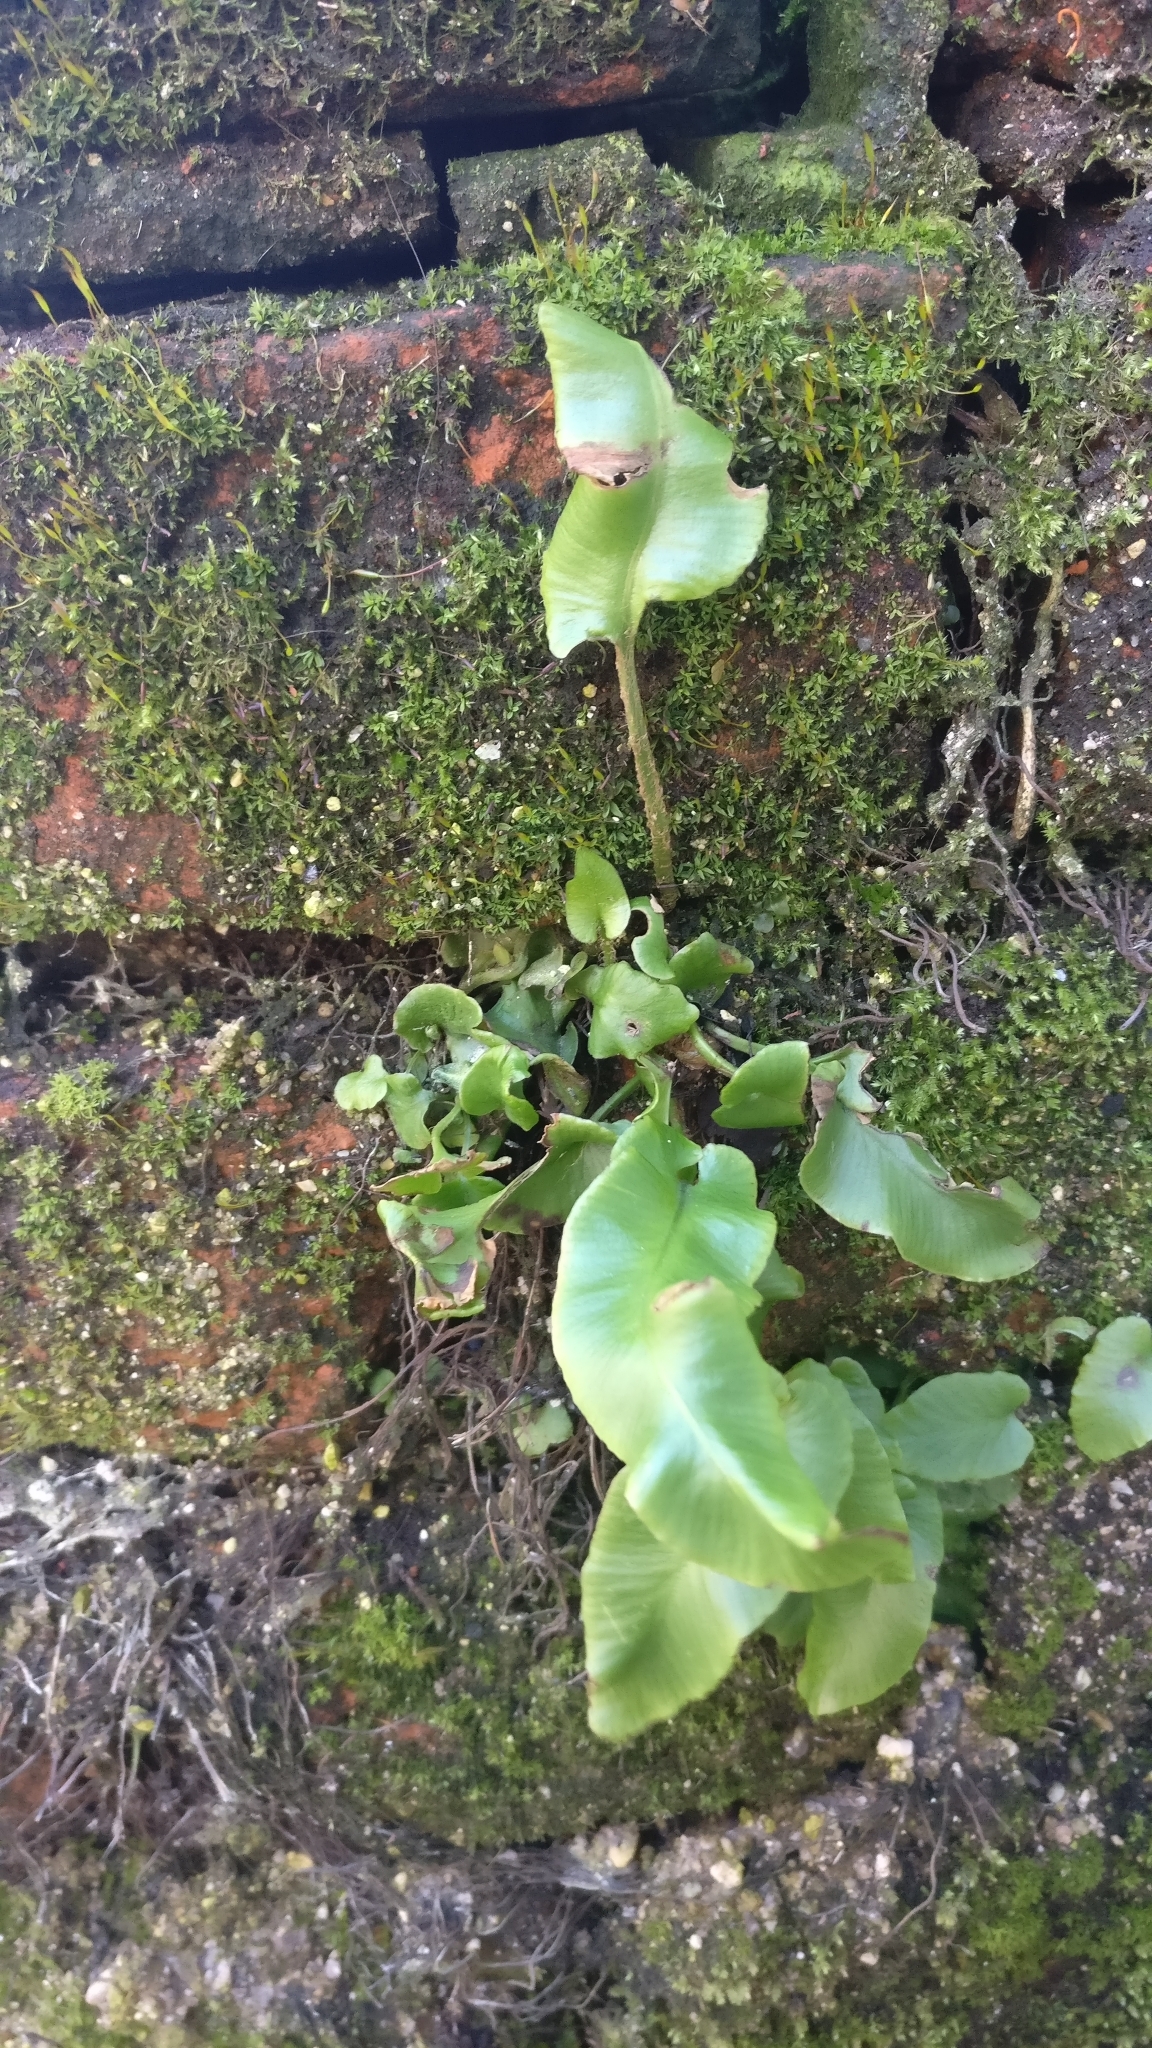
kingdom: Plantae
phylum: Tracheophyta
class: Polypodiopsida
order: Polypodiales
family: Aspleniaceae
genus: Asplenium
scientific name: Asplenium scolopendrium
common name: Hart's-tongue fern
